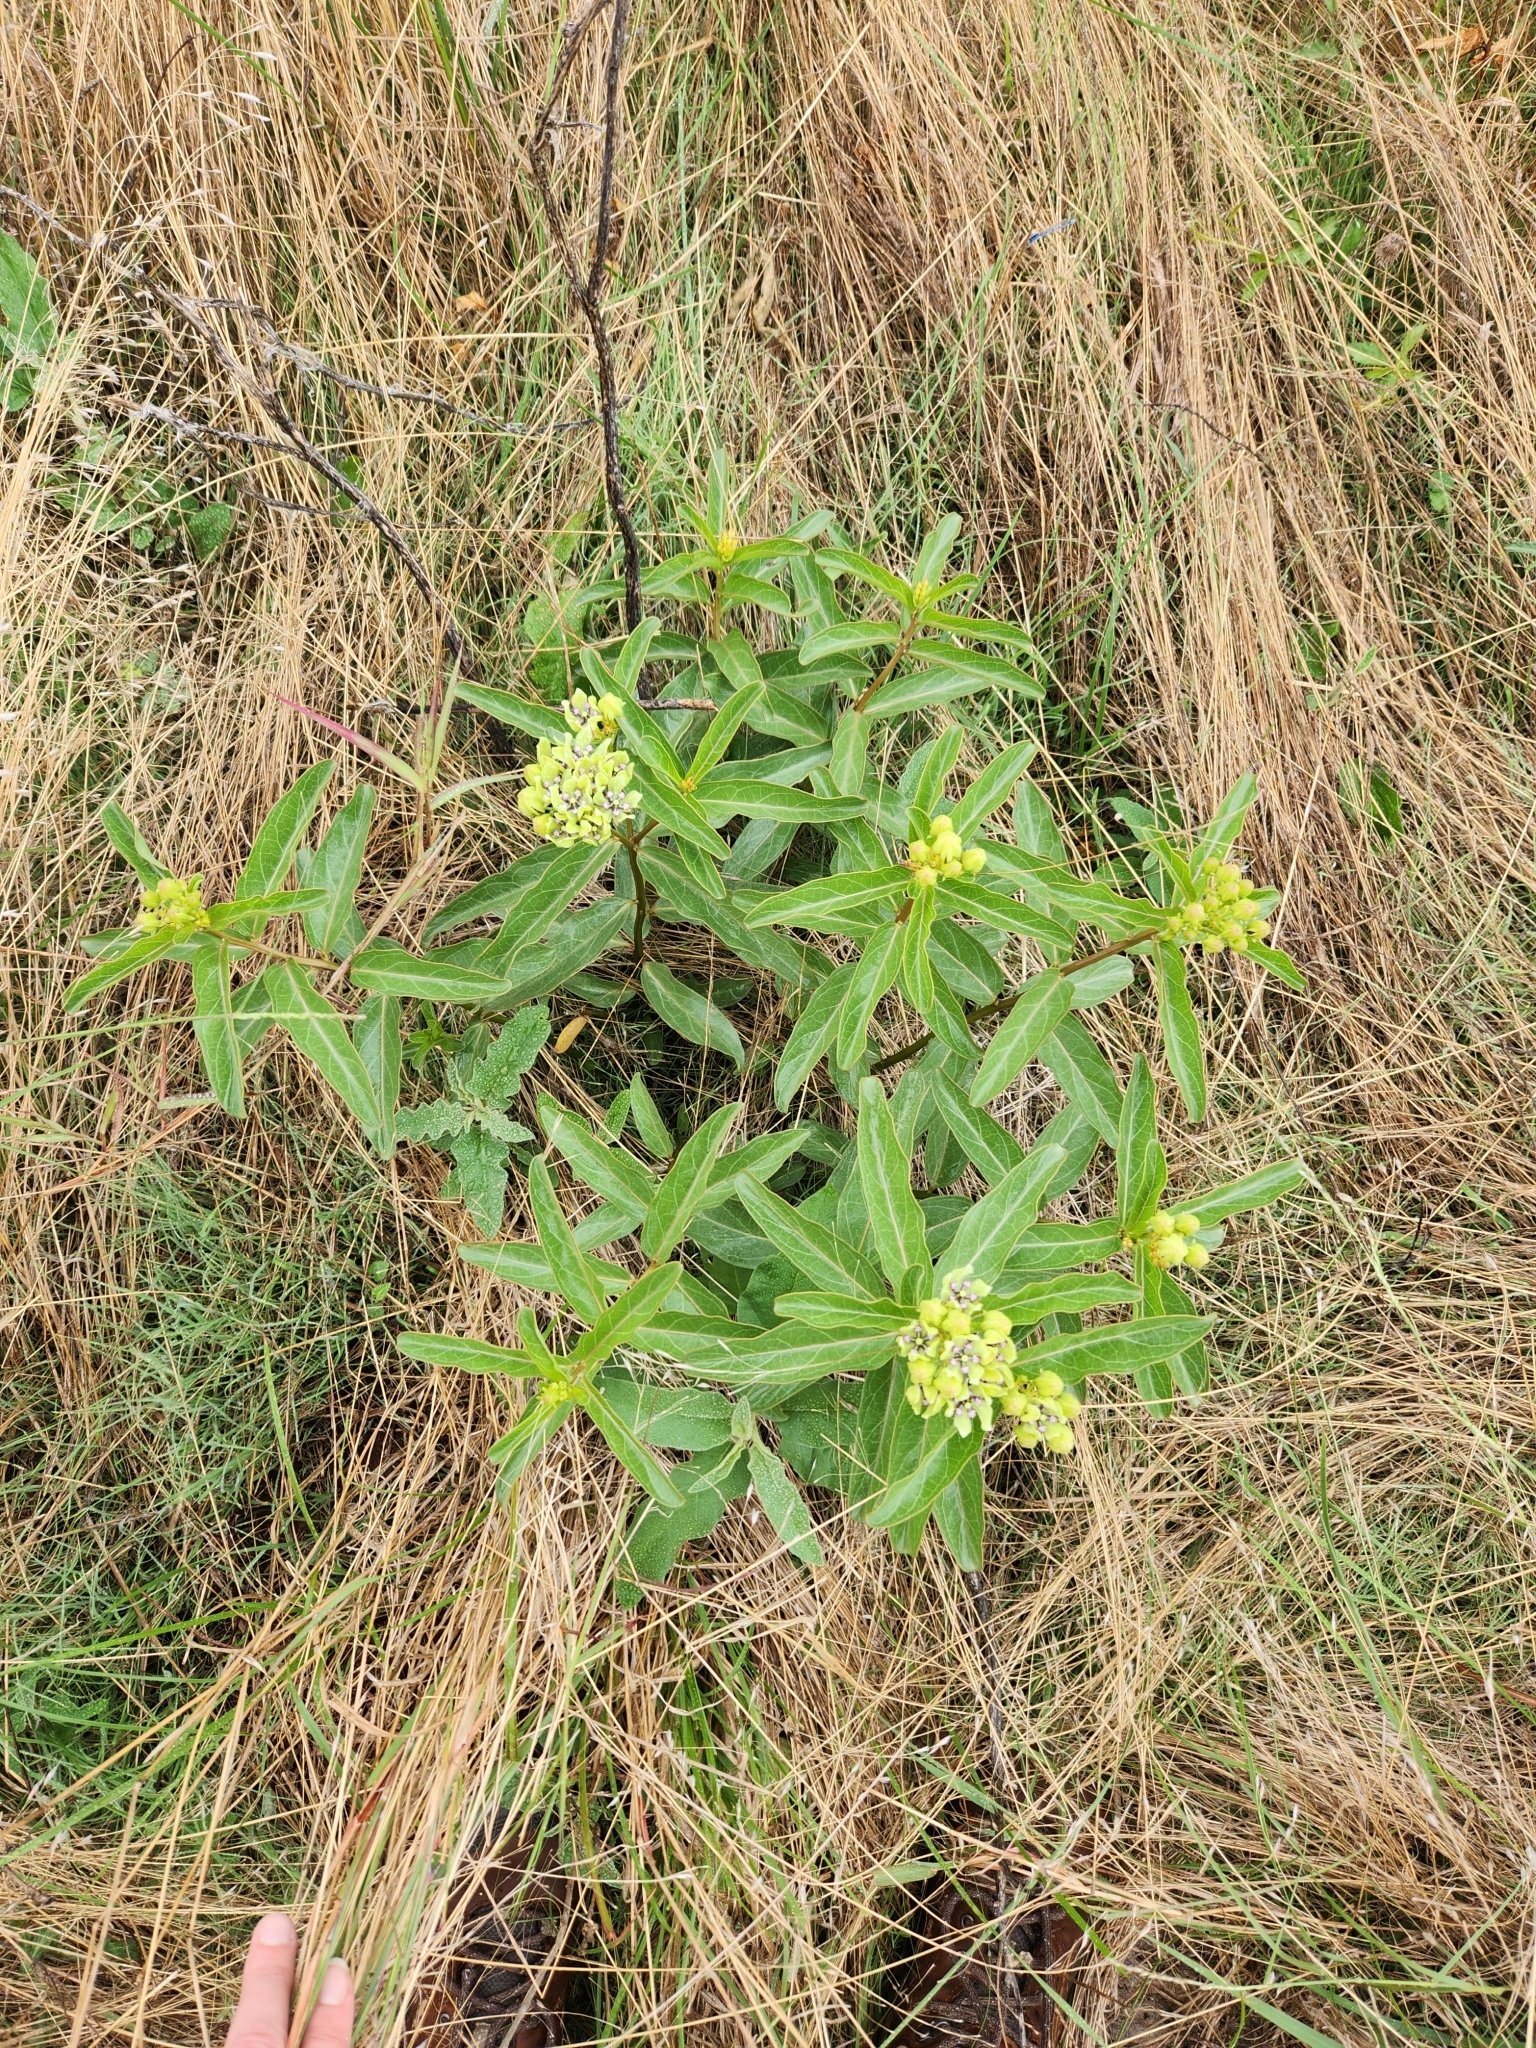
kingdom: Plantae
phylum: Tracheophyta
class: Magnoliopsida
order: Gentianales
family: Apocynaceae
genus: Asclepias
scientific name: Asclepias viridis
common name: Antelope-horns
